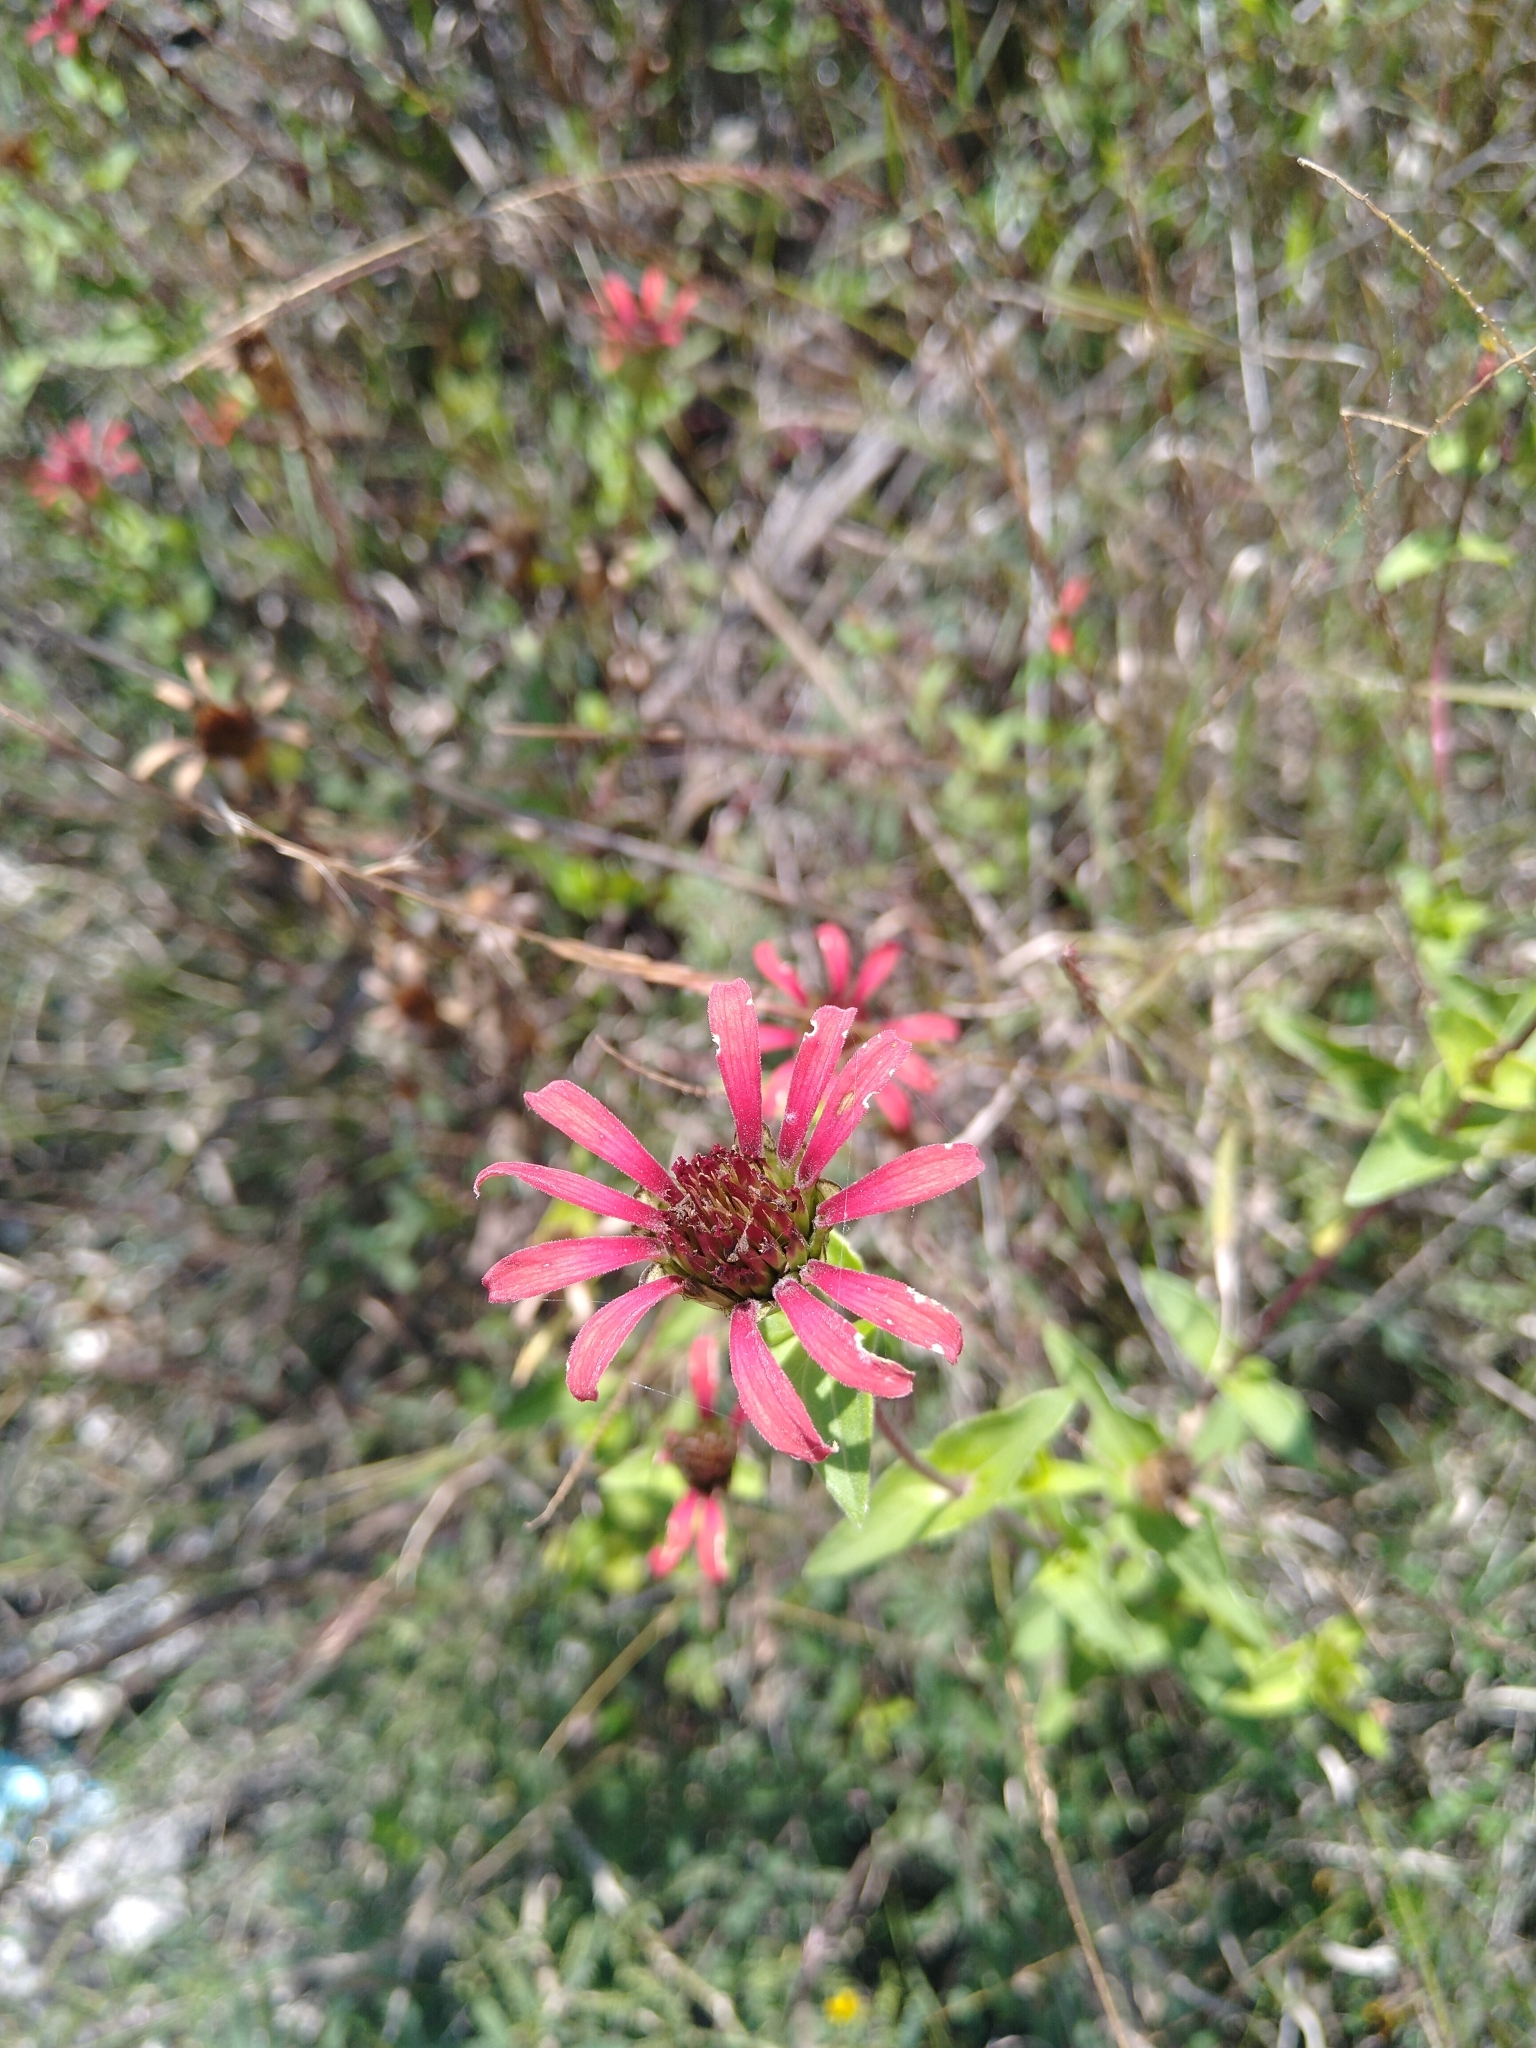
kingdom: Plantae
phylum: Tracheophyta
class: Magnoliopsida
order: Asterales
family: Asteraceae
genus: Zinnia
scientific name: Zinnia peruviana
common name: Peruvian zinnia
